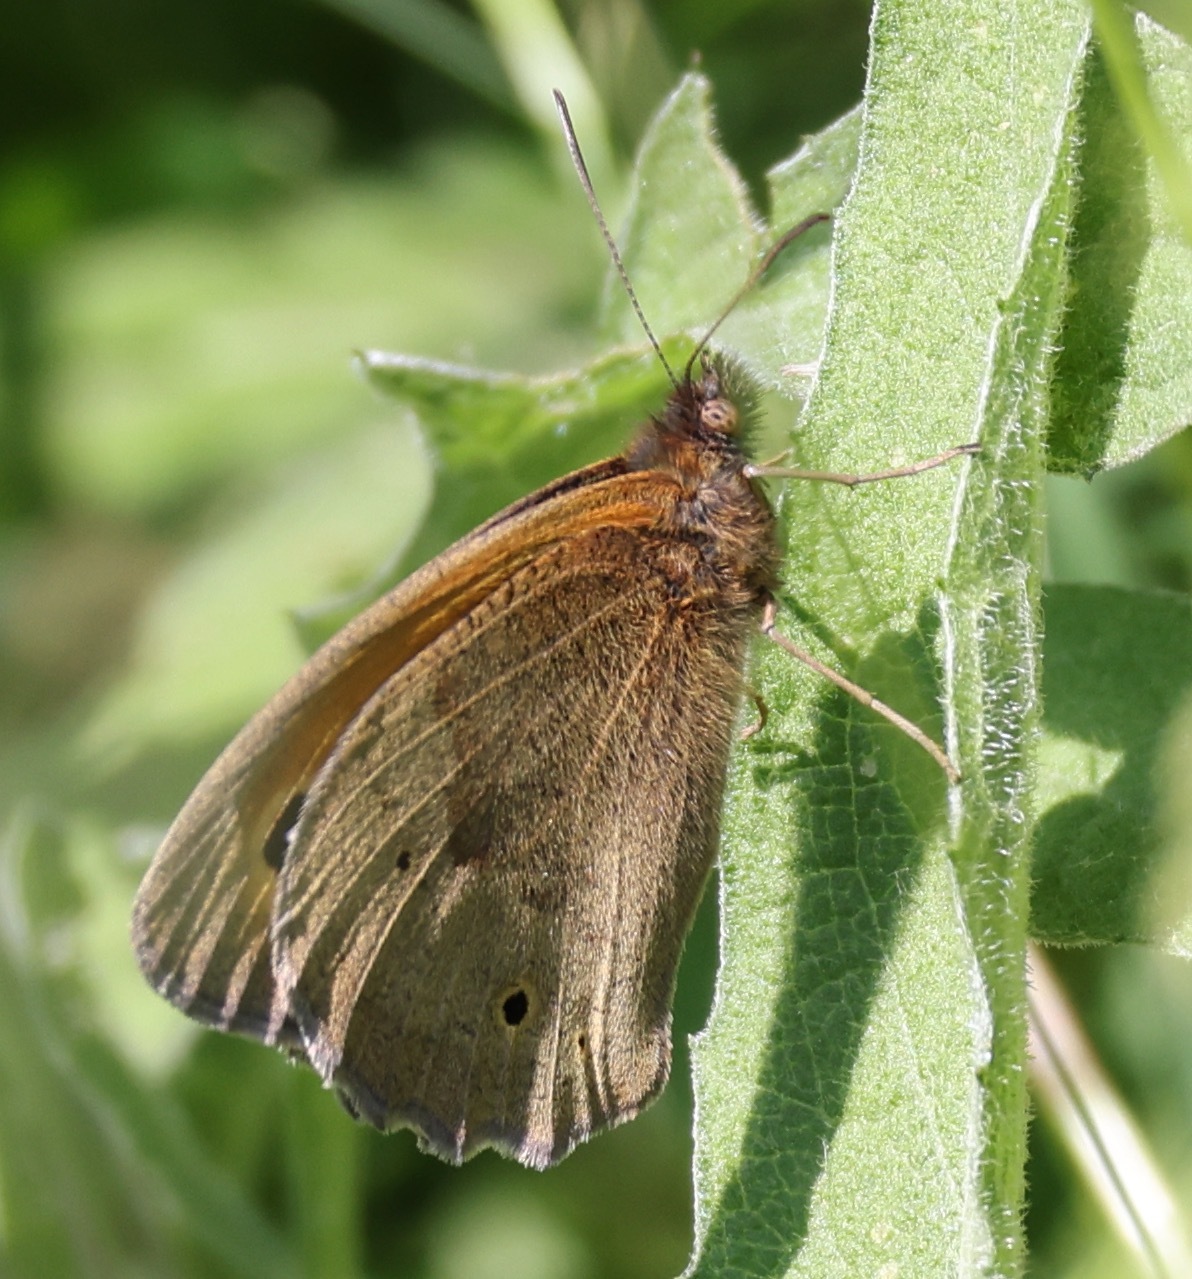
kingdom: Animalia
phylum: Arthropoda
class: Insecta
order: Lepidoptera
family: Nymphalidae
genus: Maniola
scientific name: Maniola jurtina
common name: Meadow brown
